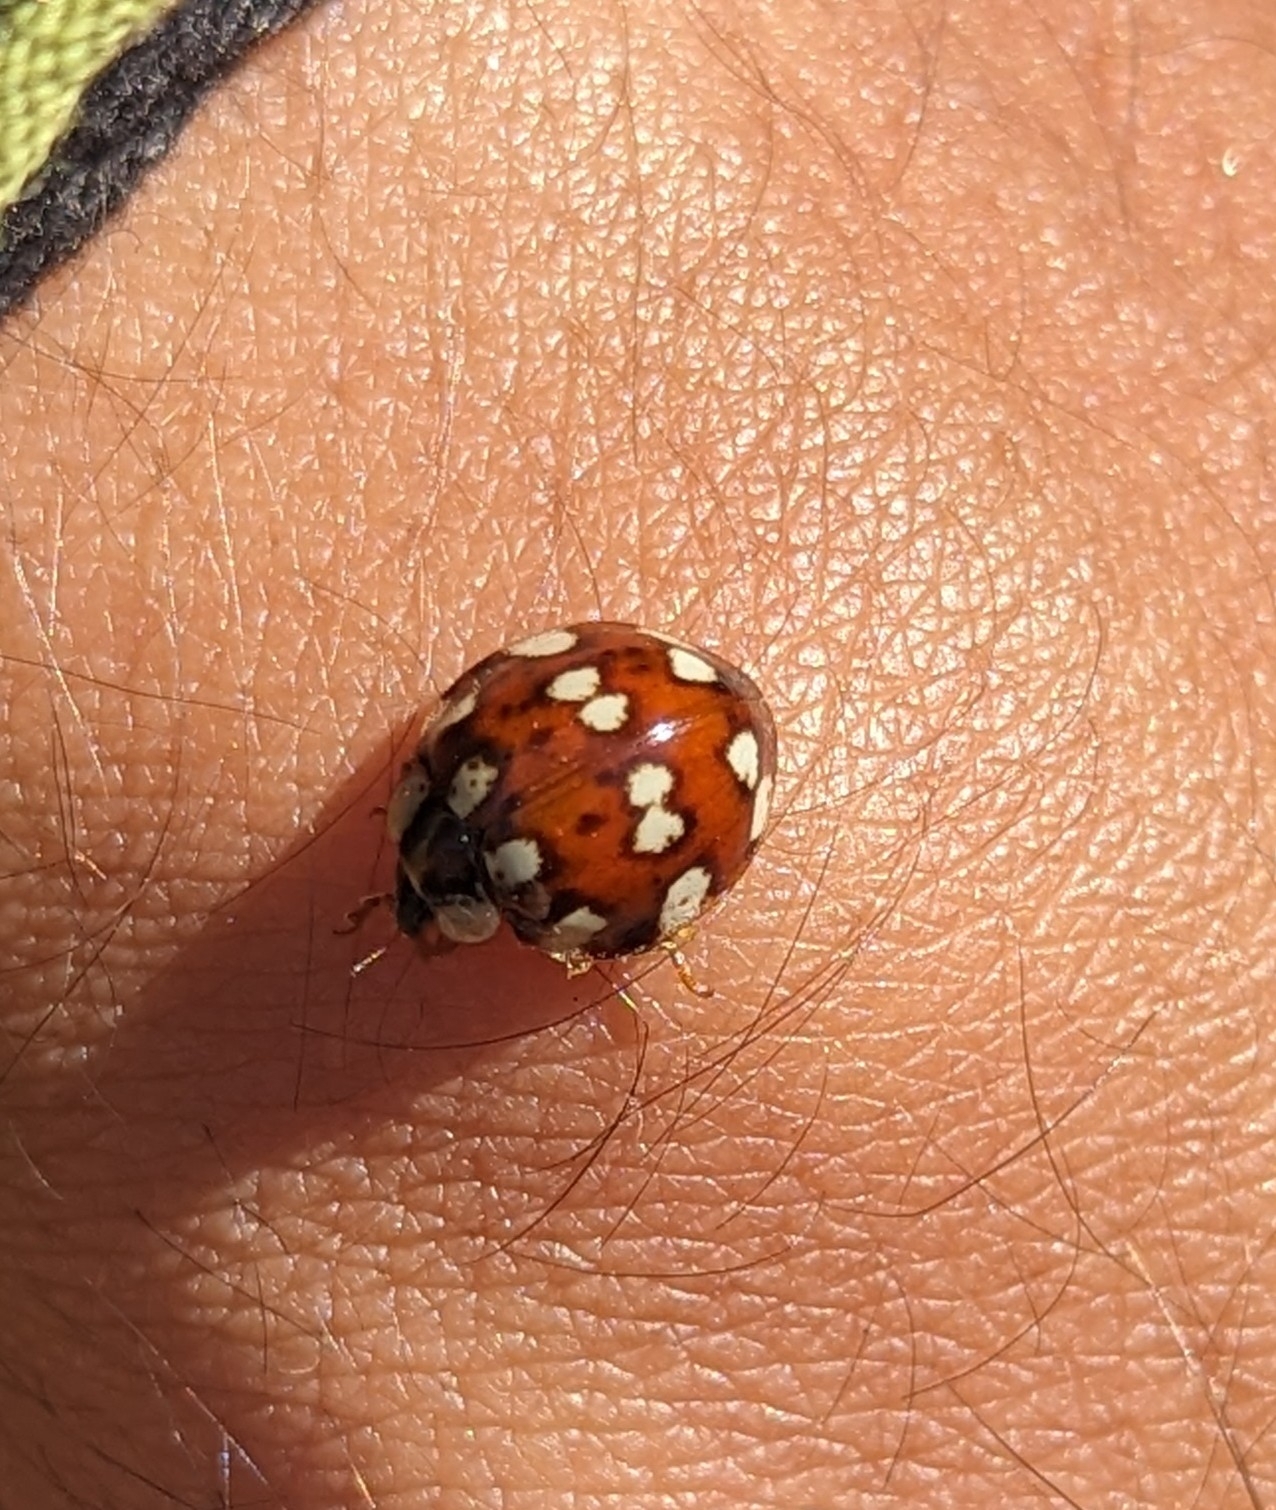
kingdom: Animalia
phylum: Arthropoda
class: Insecta
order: Coleoptera
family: Coccinellidae
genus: Harmonia
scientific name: Harmonia eucharis
